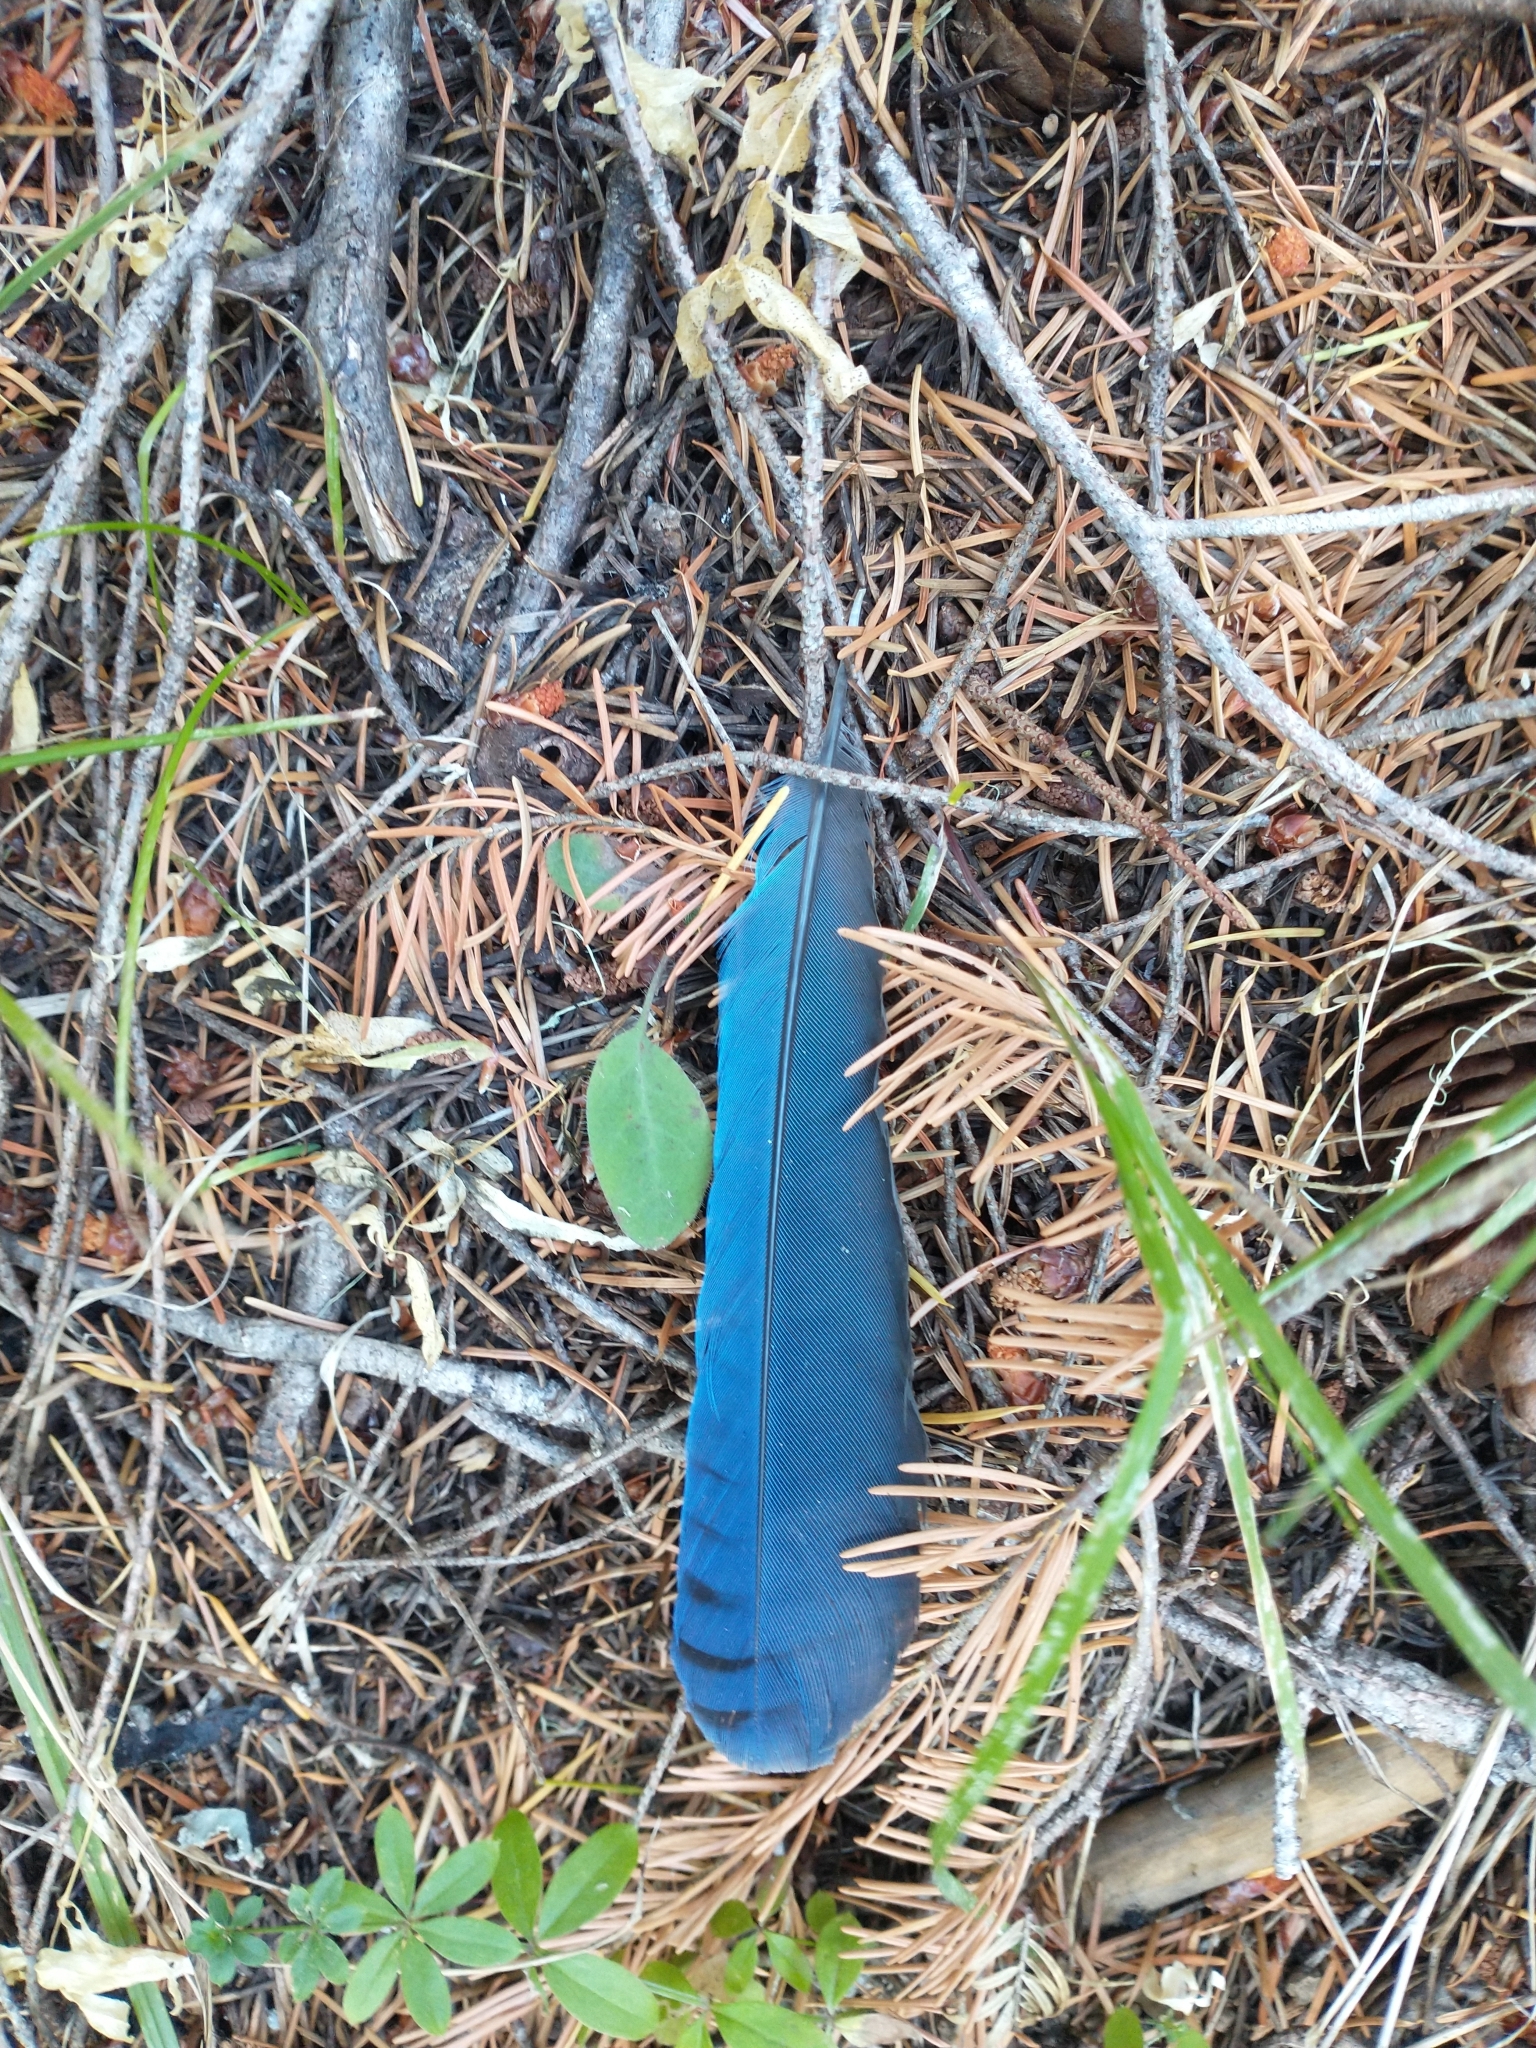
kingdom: Animalia
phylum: Chordata
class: Aves
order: Passeriformes
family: Corvidae
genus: Cyanocitta
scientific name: Cyanocitta stelleri
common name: Steller's jay
